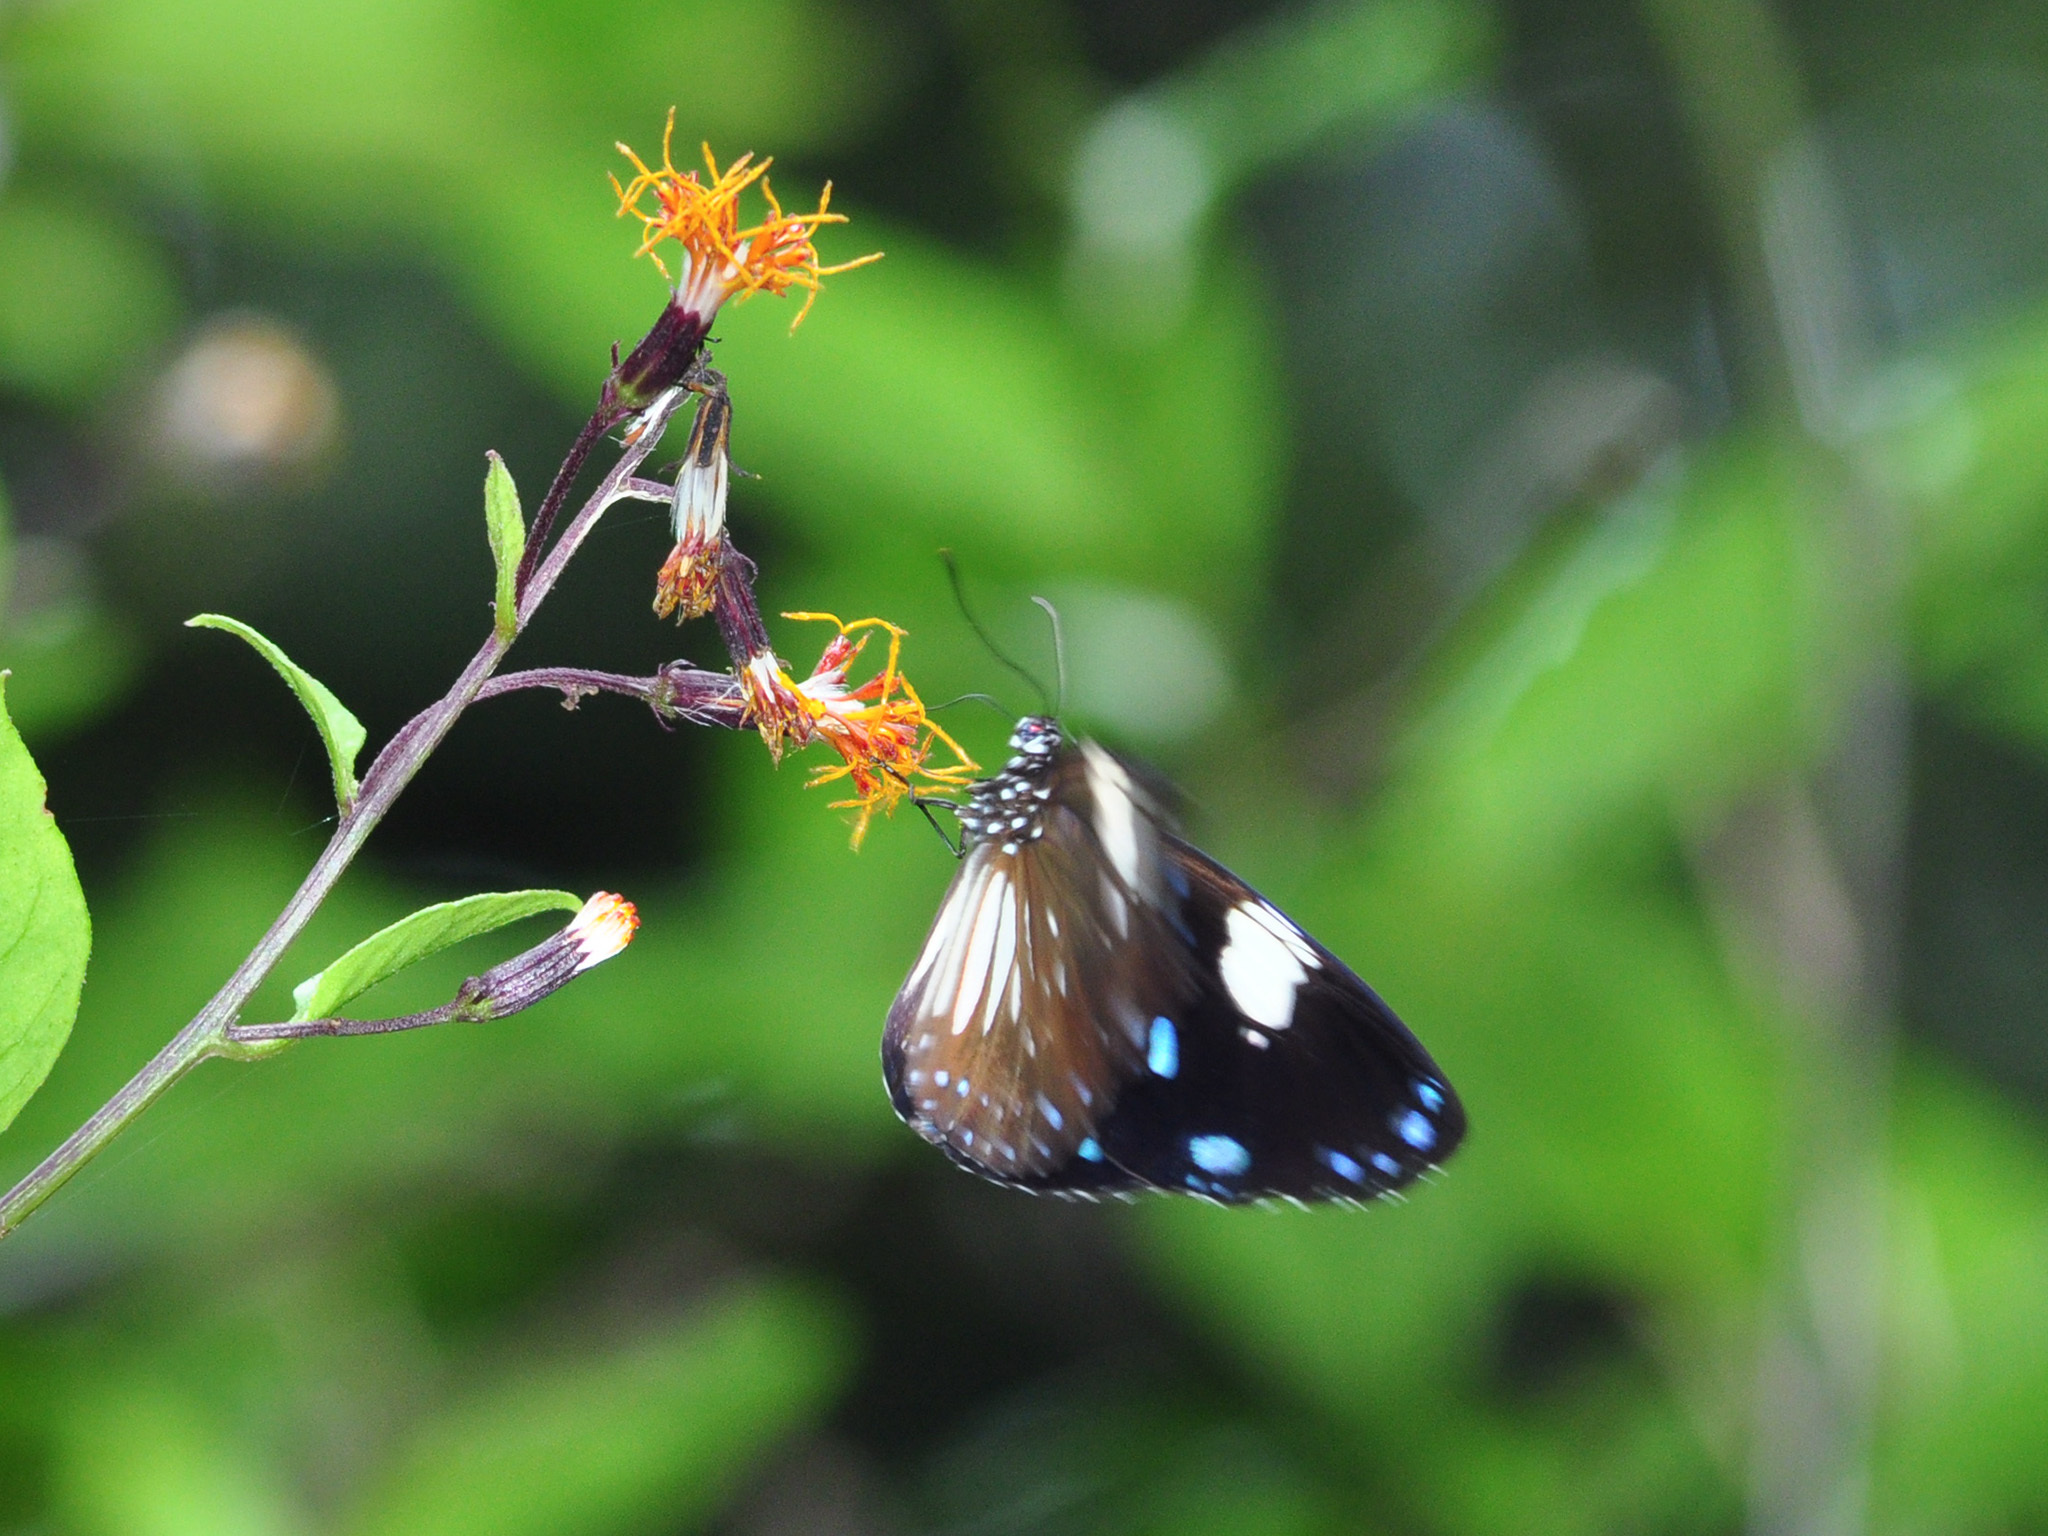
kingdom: Animalia
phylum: Arthropoda
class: Insecta
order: Lepidoptera
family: Nymphalidae
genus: Euploea
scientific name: Euploea radamanthus
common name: Magpie crow butterfly
